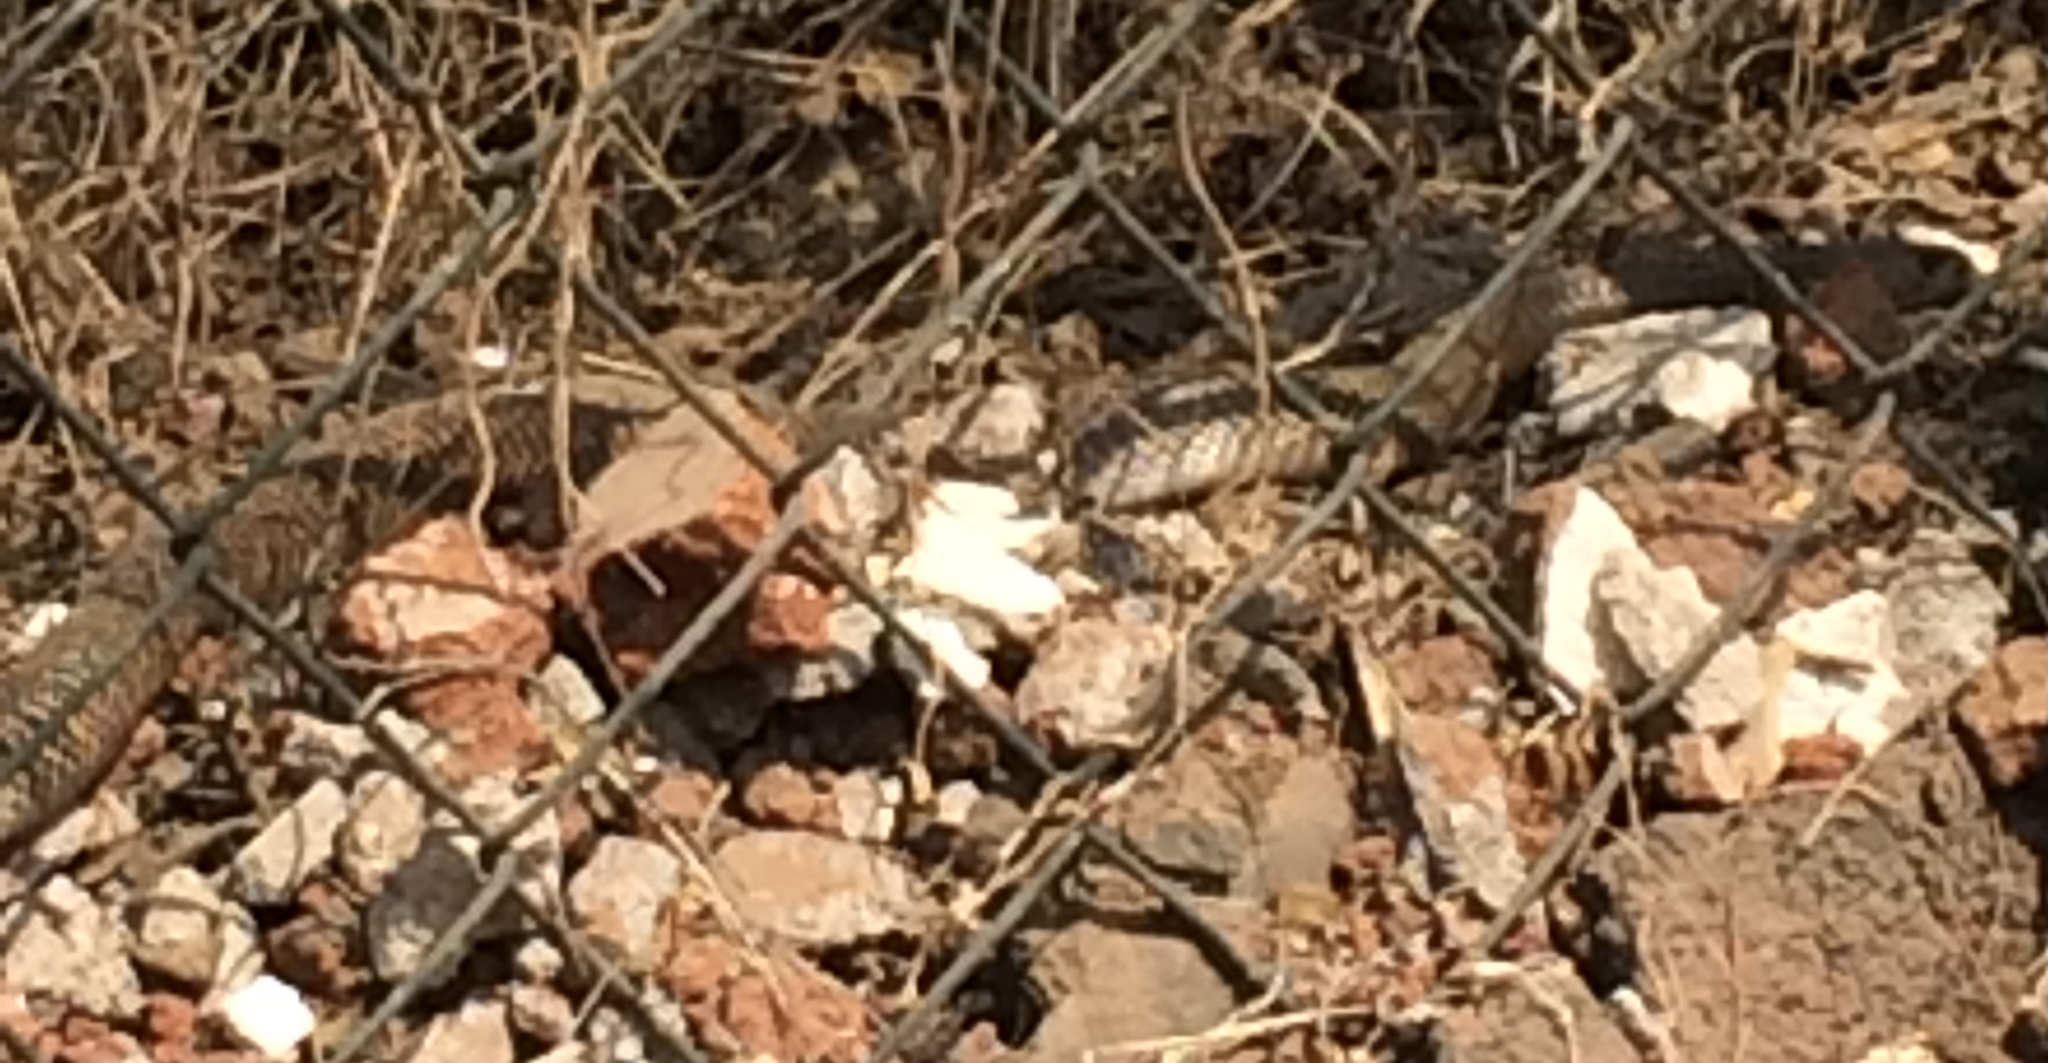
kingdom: Animalia
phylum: Chordata
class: Squamata
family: Elapidae
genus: Naja
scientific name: Naja naja
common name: Indian cobra
